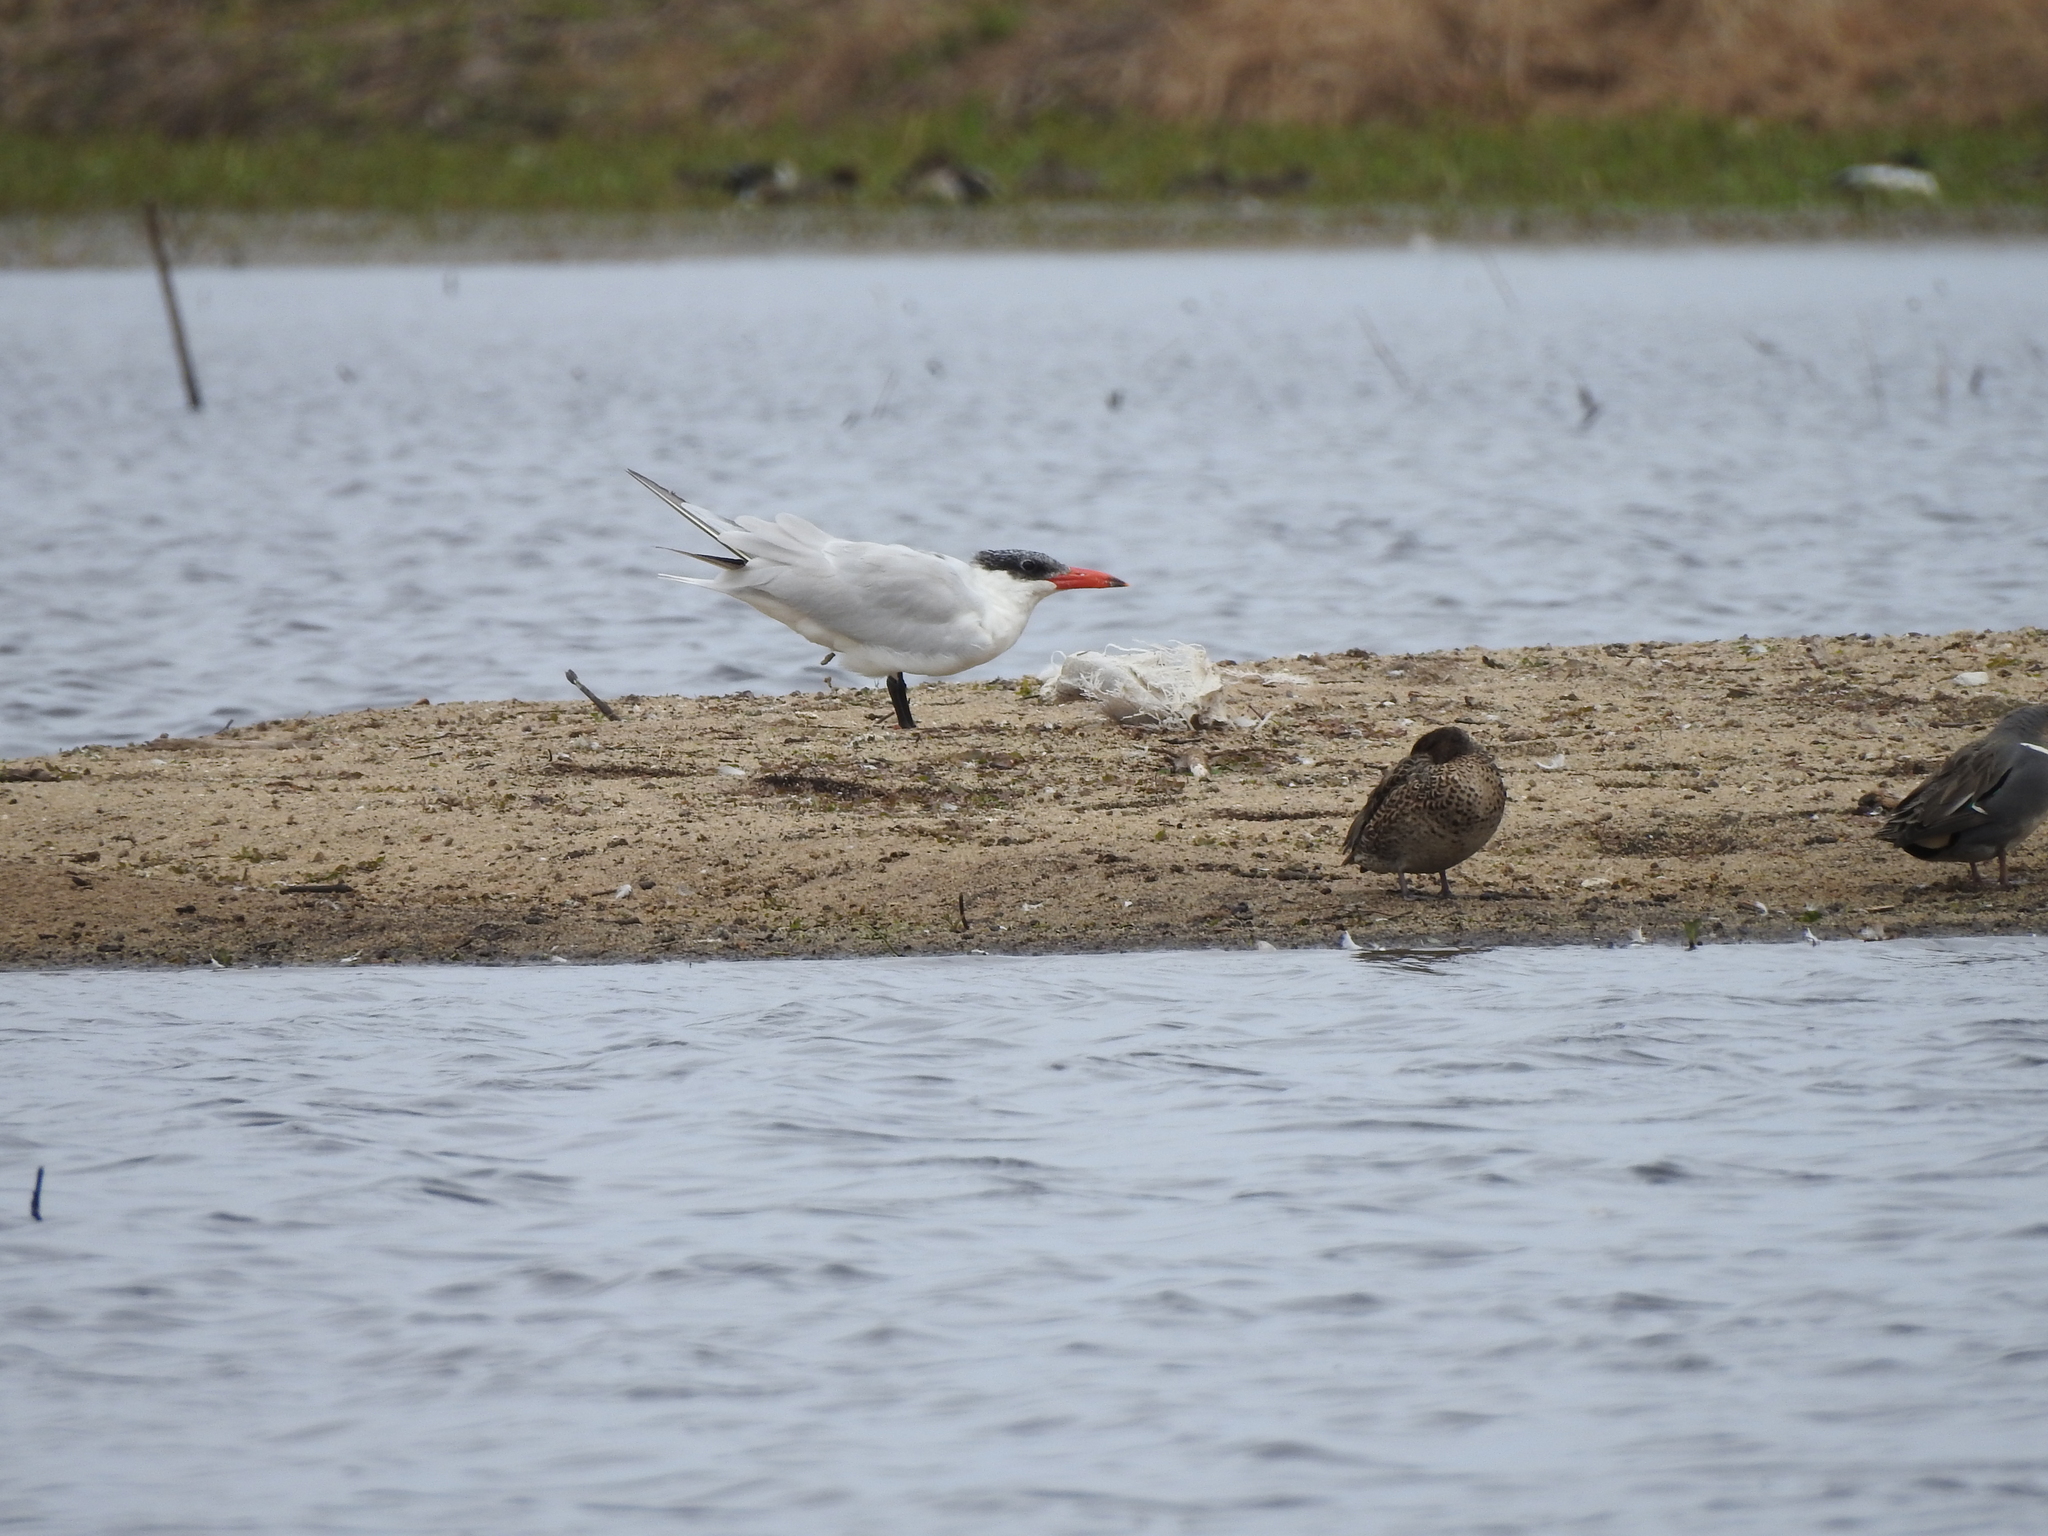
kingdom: Animalia
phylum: Chordata
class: Aves
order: Charadriiformes
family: Laridae
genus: Hydroprogne
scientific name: Hydroprogne caspia
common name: Caspian tern
